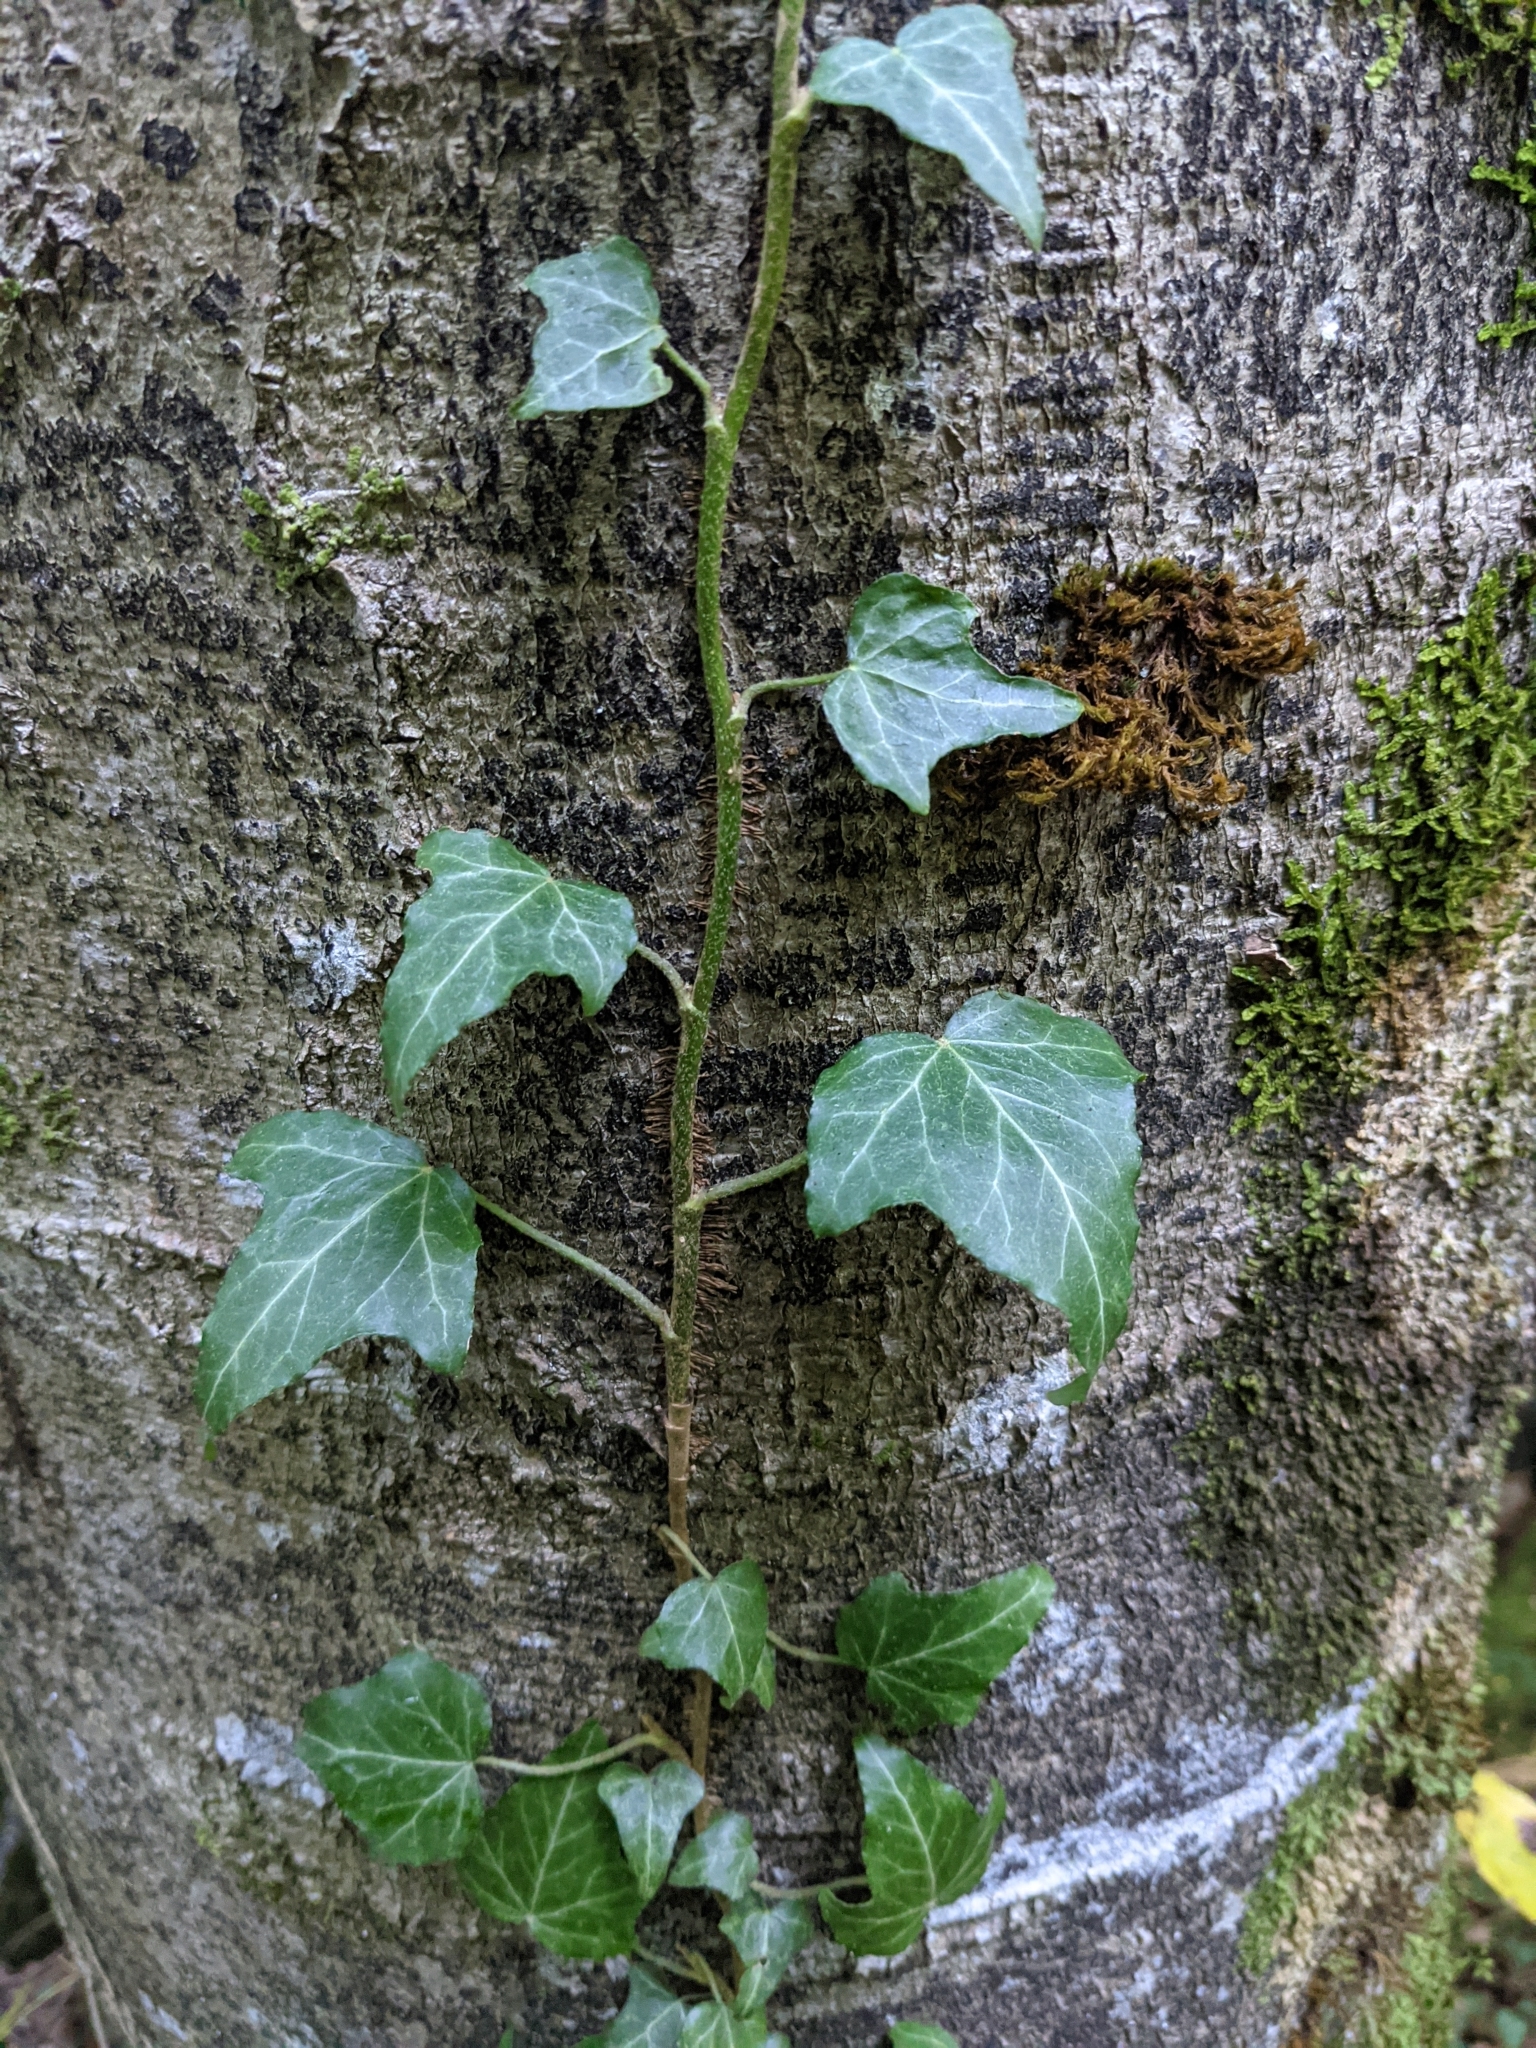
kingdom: Plantae
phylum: Tracheophyta
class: Magnoliopsida
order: Apiales
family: Araliaceae
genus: Hedera
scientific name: Hedera helix
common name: Ivy
